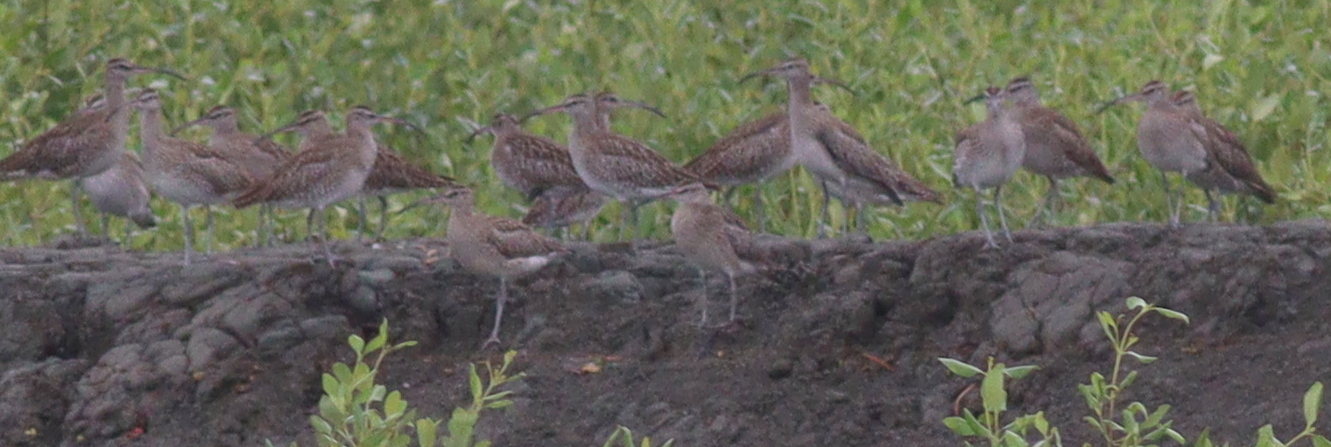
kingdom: Animalia
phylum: Chordata
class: Aves
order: Charadriiformes
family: Scolopacidae
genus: Numenius
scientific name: Numenius phaeopus
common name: Whimbrel
